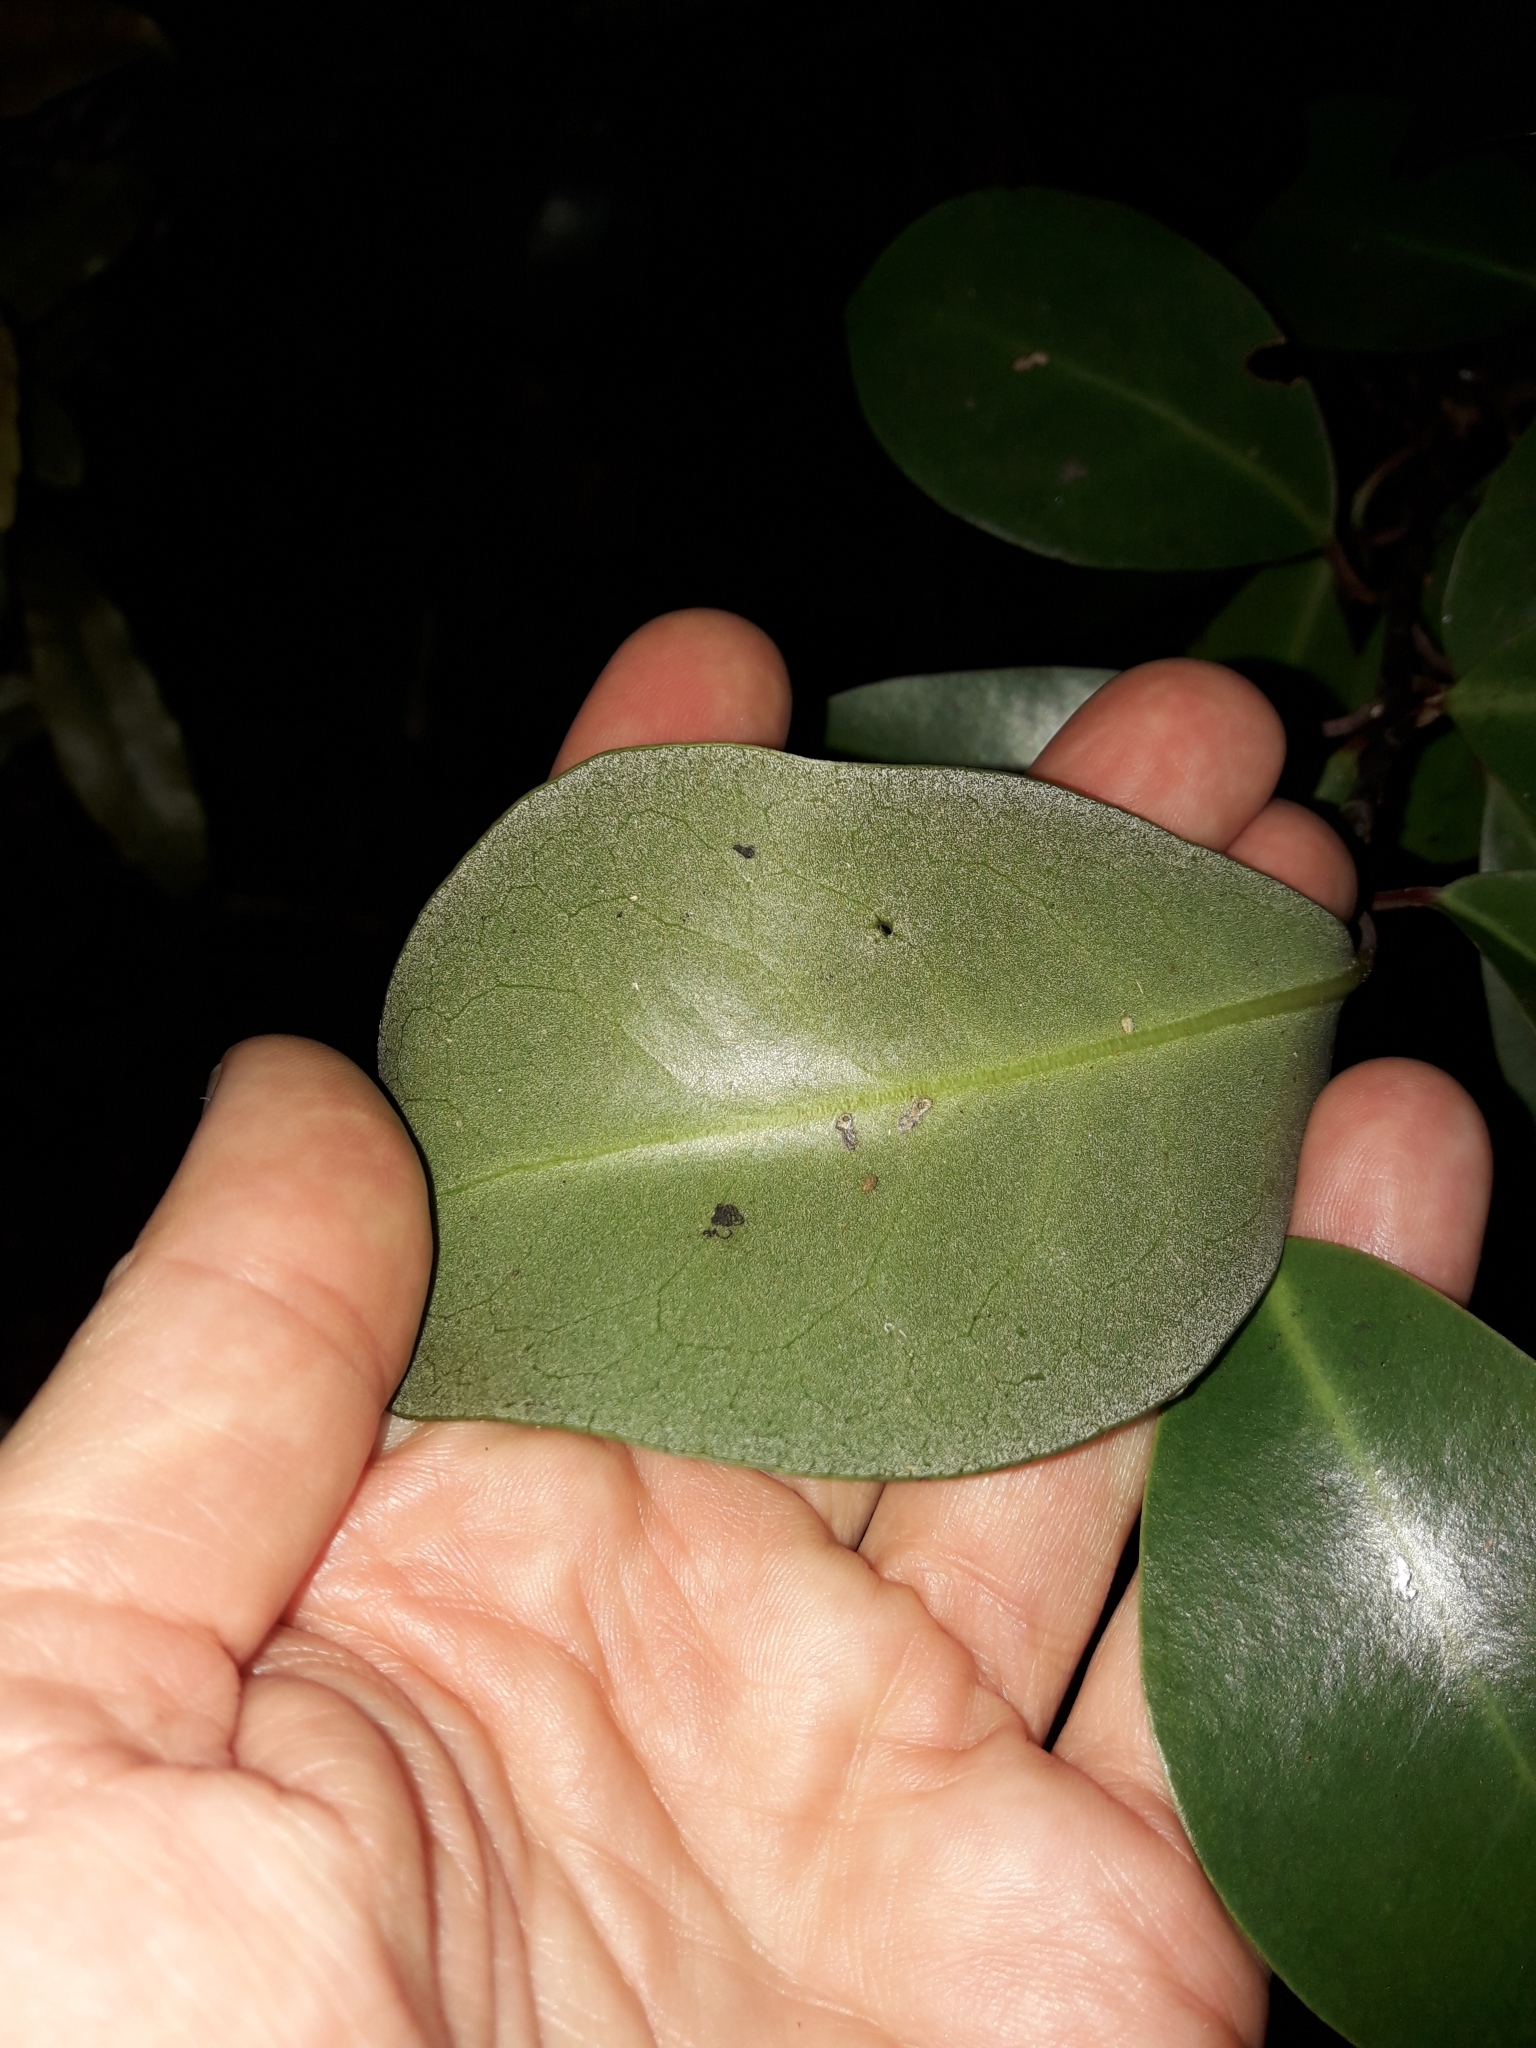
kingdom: Plantae
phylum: Tracheophyta
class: Magnoliopsida
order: Canellales
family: Winteraceae
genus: Pseudowintera
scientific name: Pseudowintera axillaris
